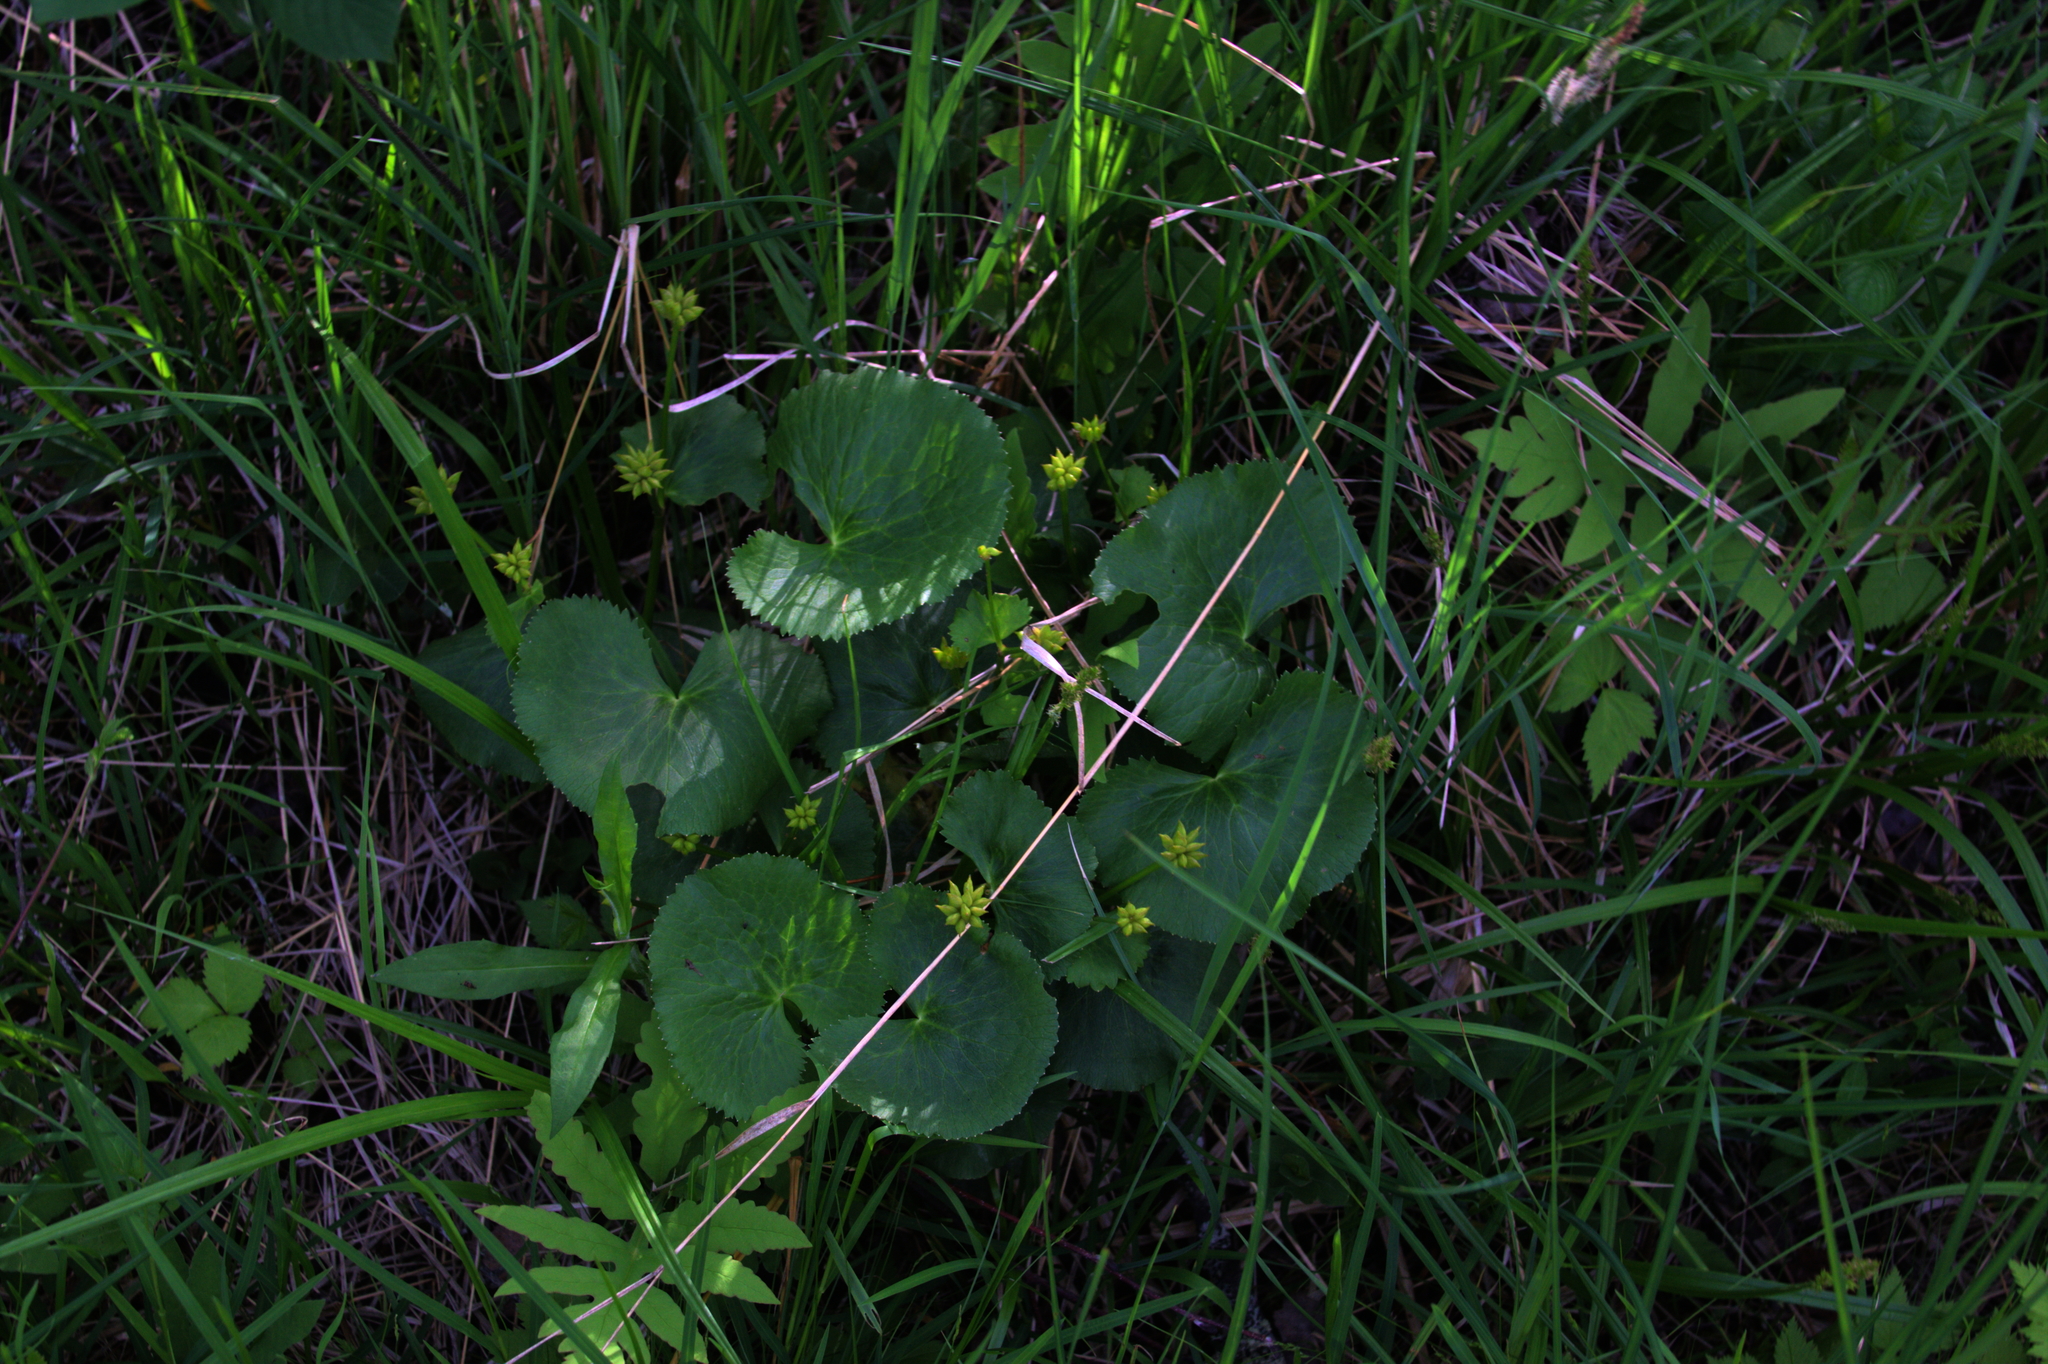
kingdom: Plantae
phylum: Tracheophyta
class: Magnoliopsida
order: Ranunculales
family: Ranunculaceae
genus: Caltha
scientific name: Caltha palustris
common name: Marsh marigold
